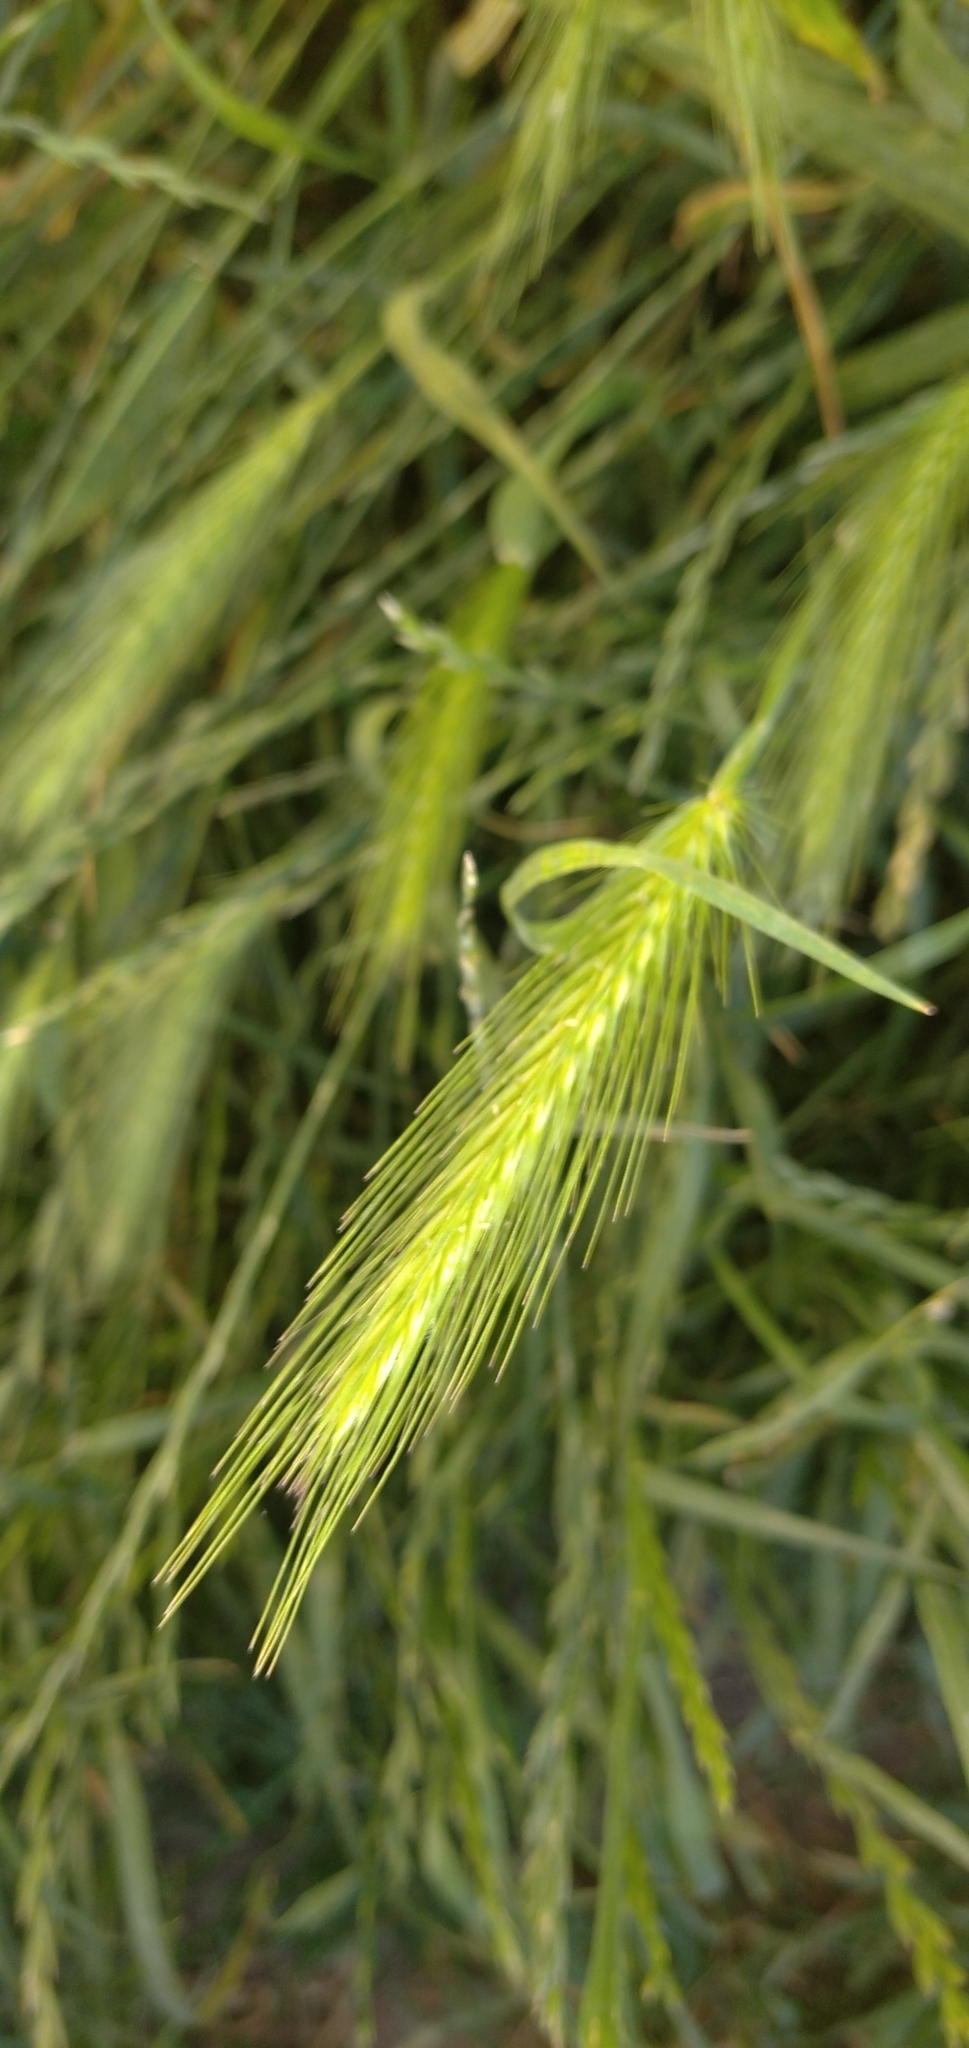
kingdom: Plantae
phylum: Tracheophyta
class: Liliopsida
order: Poales
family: Poaceae
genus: Hordeum
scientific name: Hordeum murinum
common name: Wall barley
